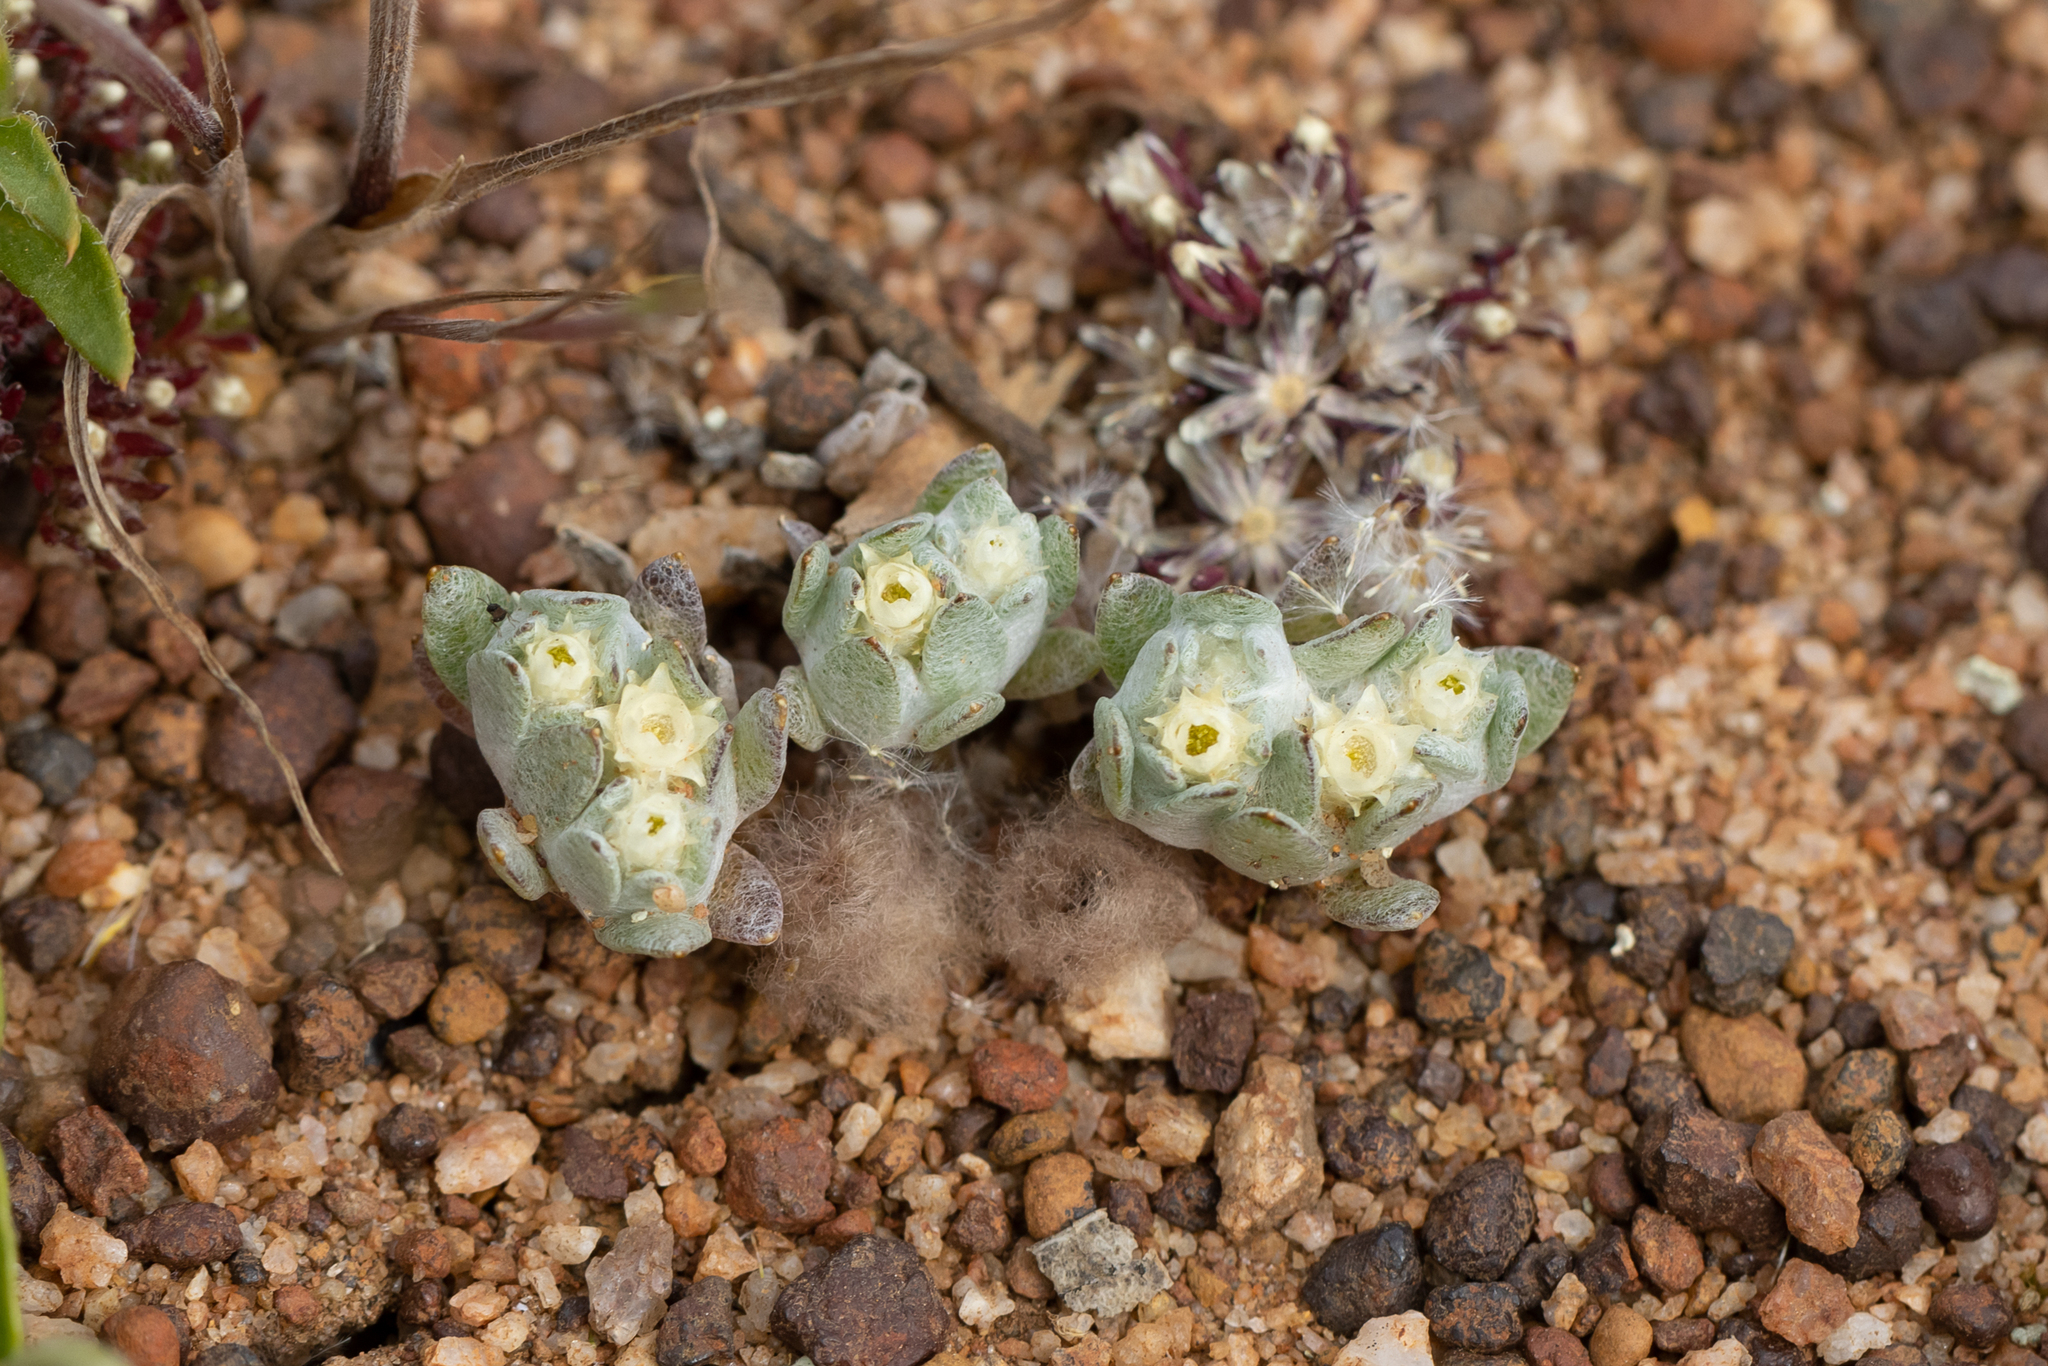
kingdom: Plantae
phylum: Tracheophyta
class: Magnoliopsida
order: Asterales
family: Asteraceae
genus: Actinobole
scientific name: Actinobole uliginosum
